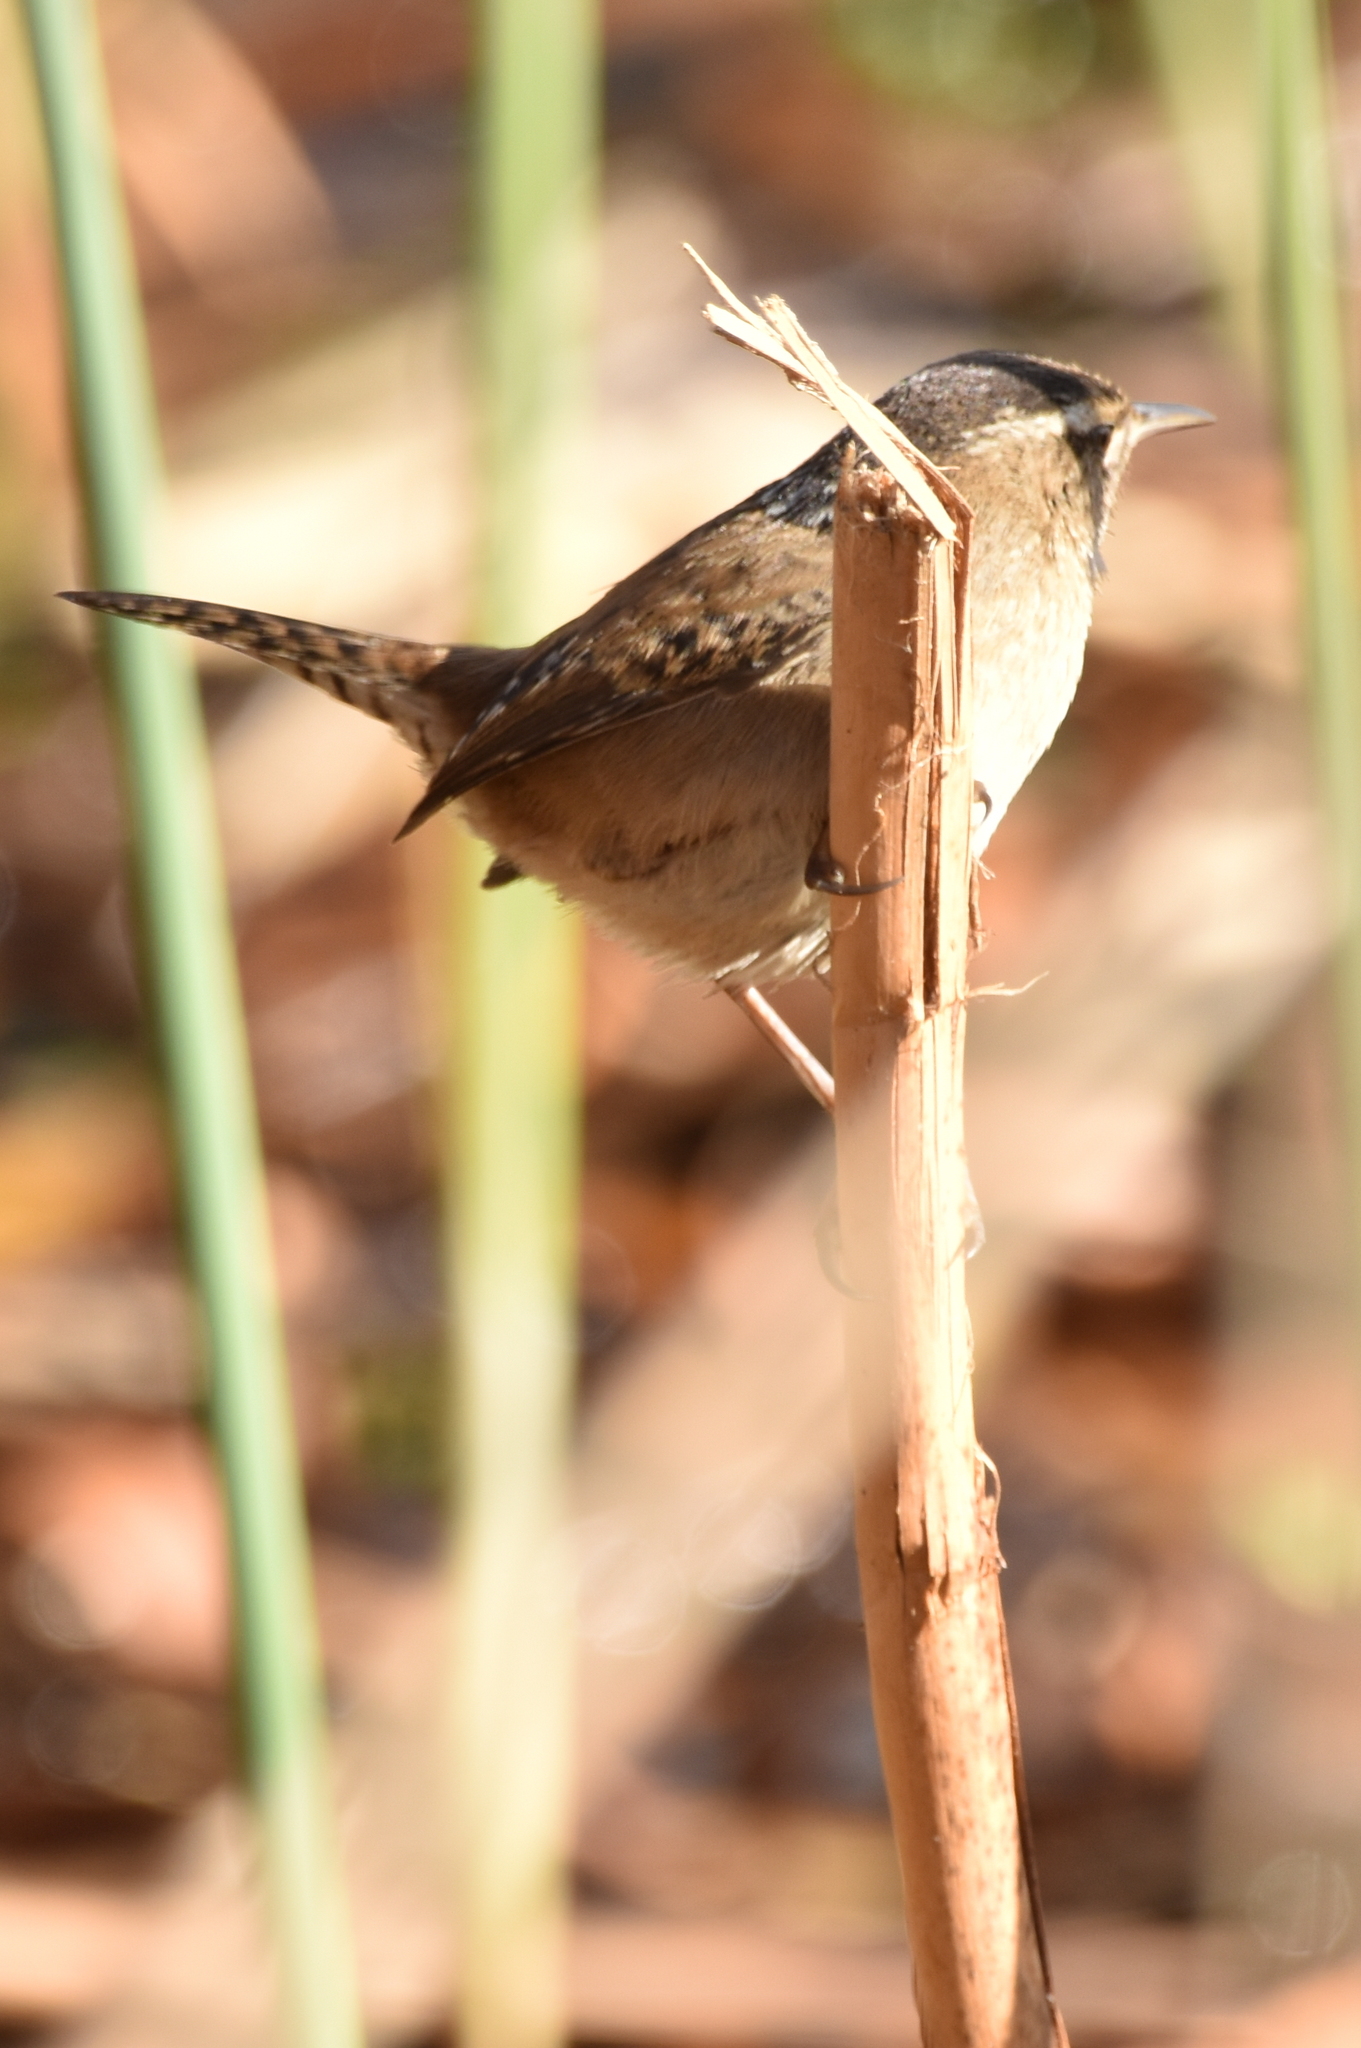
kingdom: Animalia
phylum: Chordata
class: Aves
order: Passeriformes
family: Troglodytidae
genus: Cistothorus
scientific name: Cistothorus palustris
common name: Marsh wren
